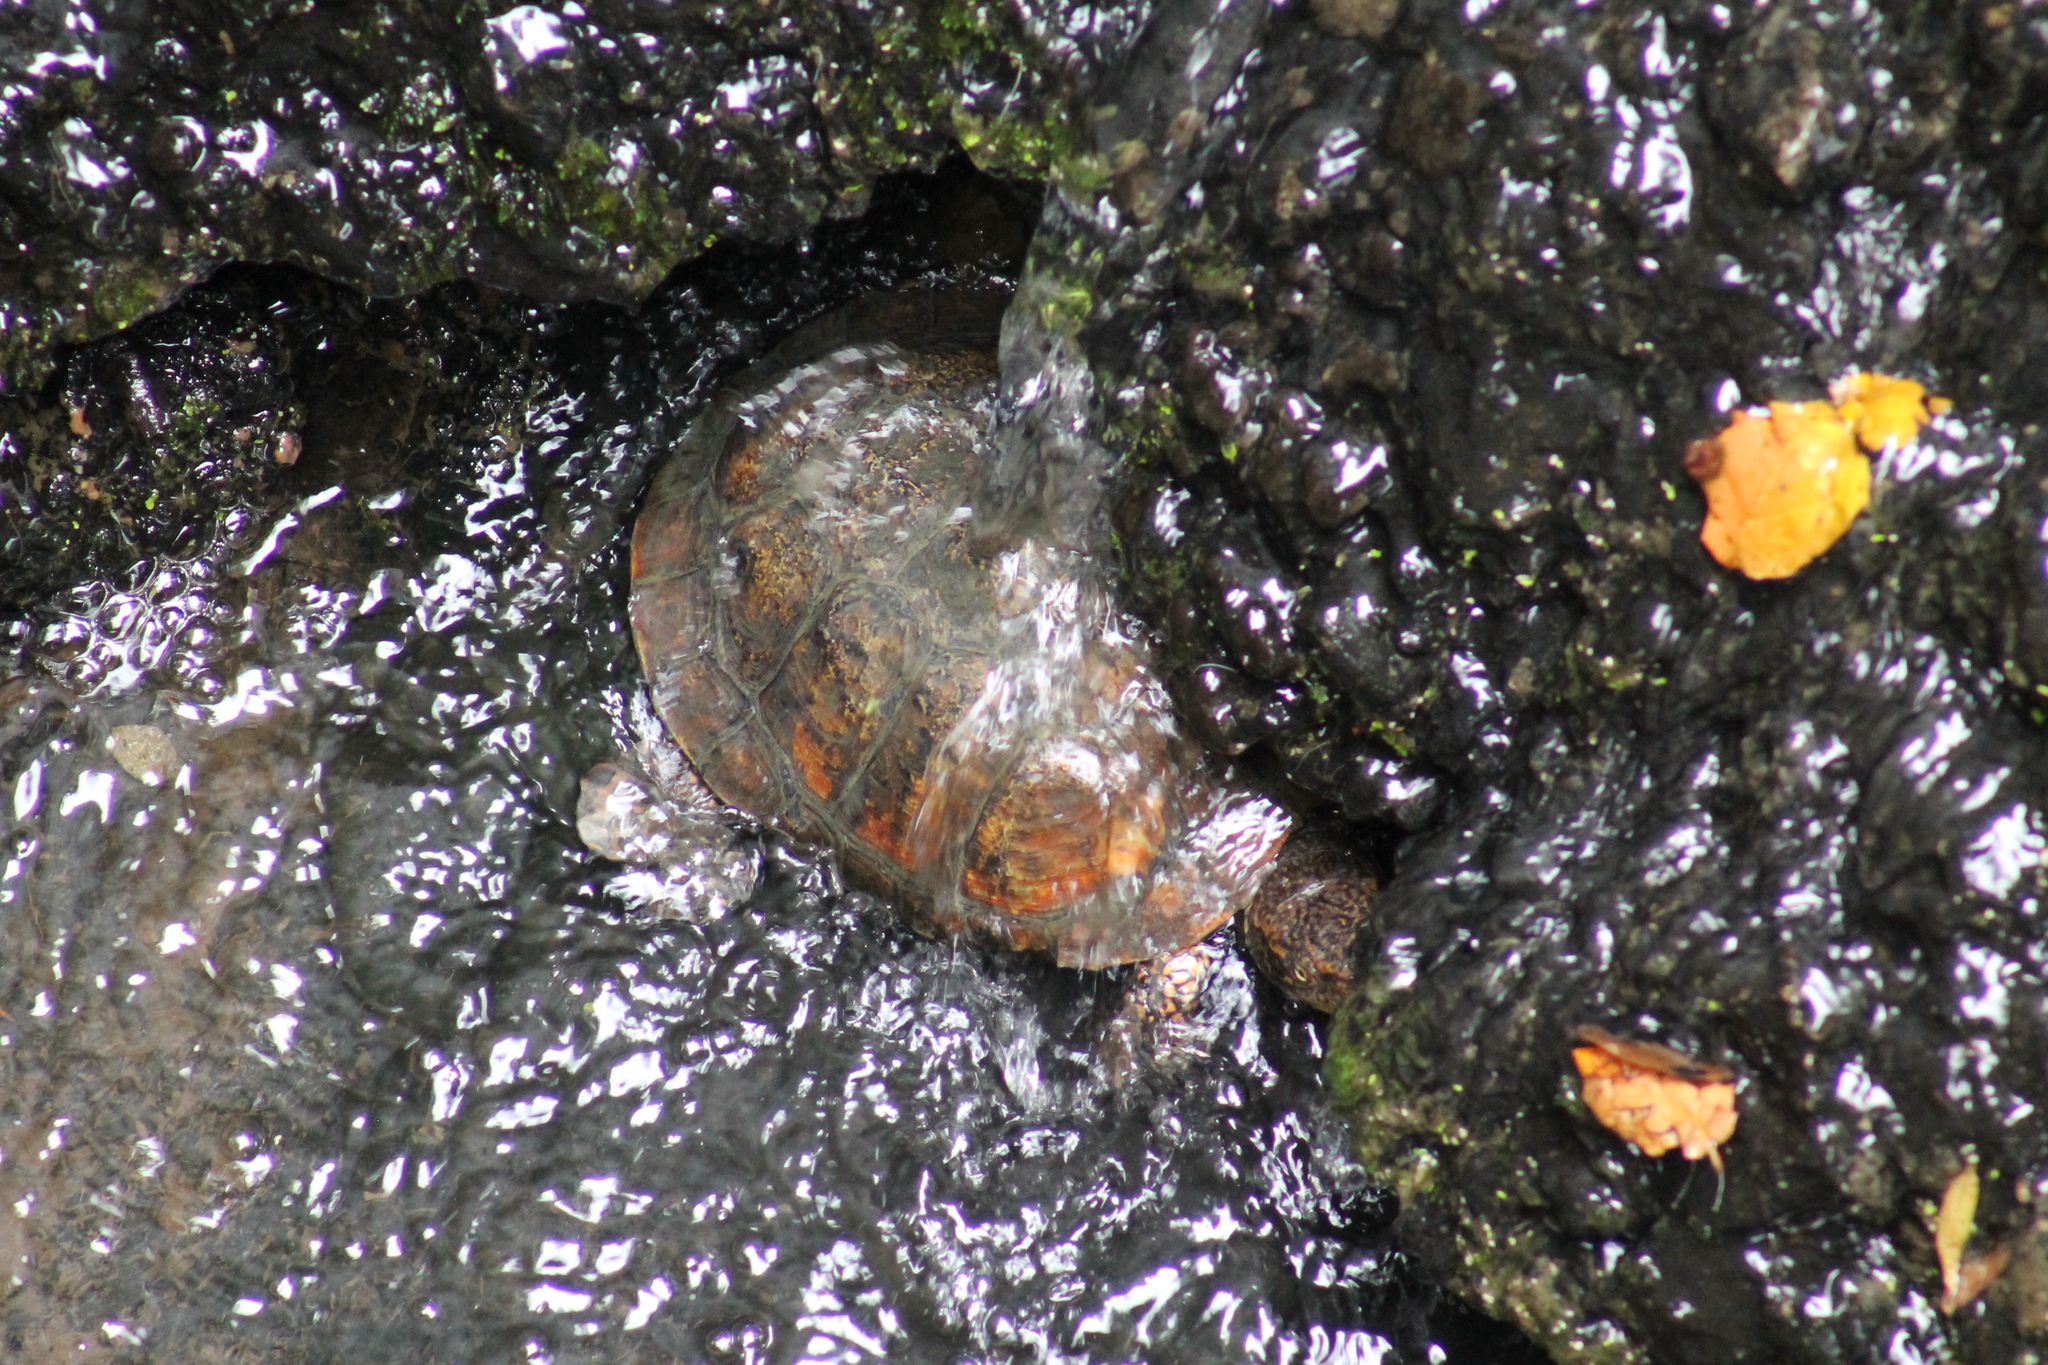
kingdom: Animalia
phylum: Chordata
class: Testudines
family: Emydidae
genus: Actinemys
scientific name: Actinemys marmorata
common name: Western pond turtle
